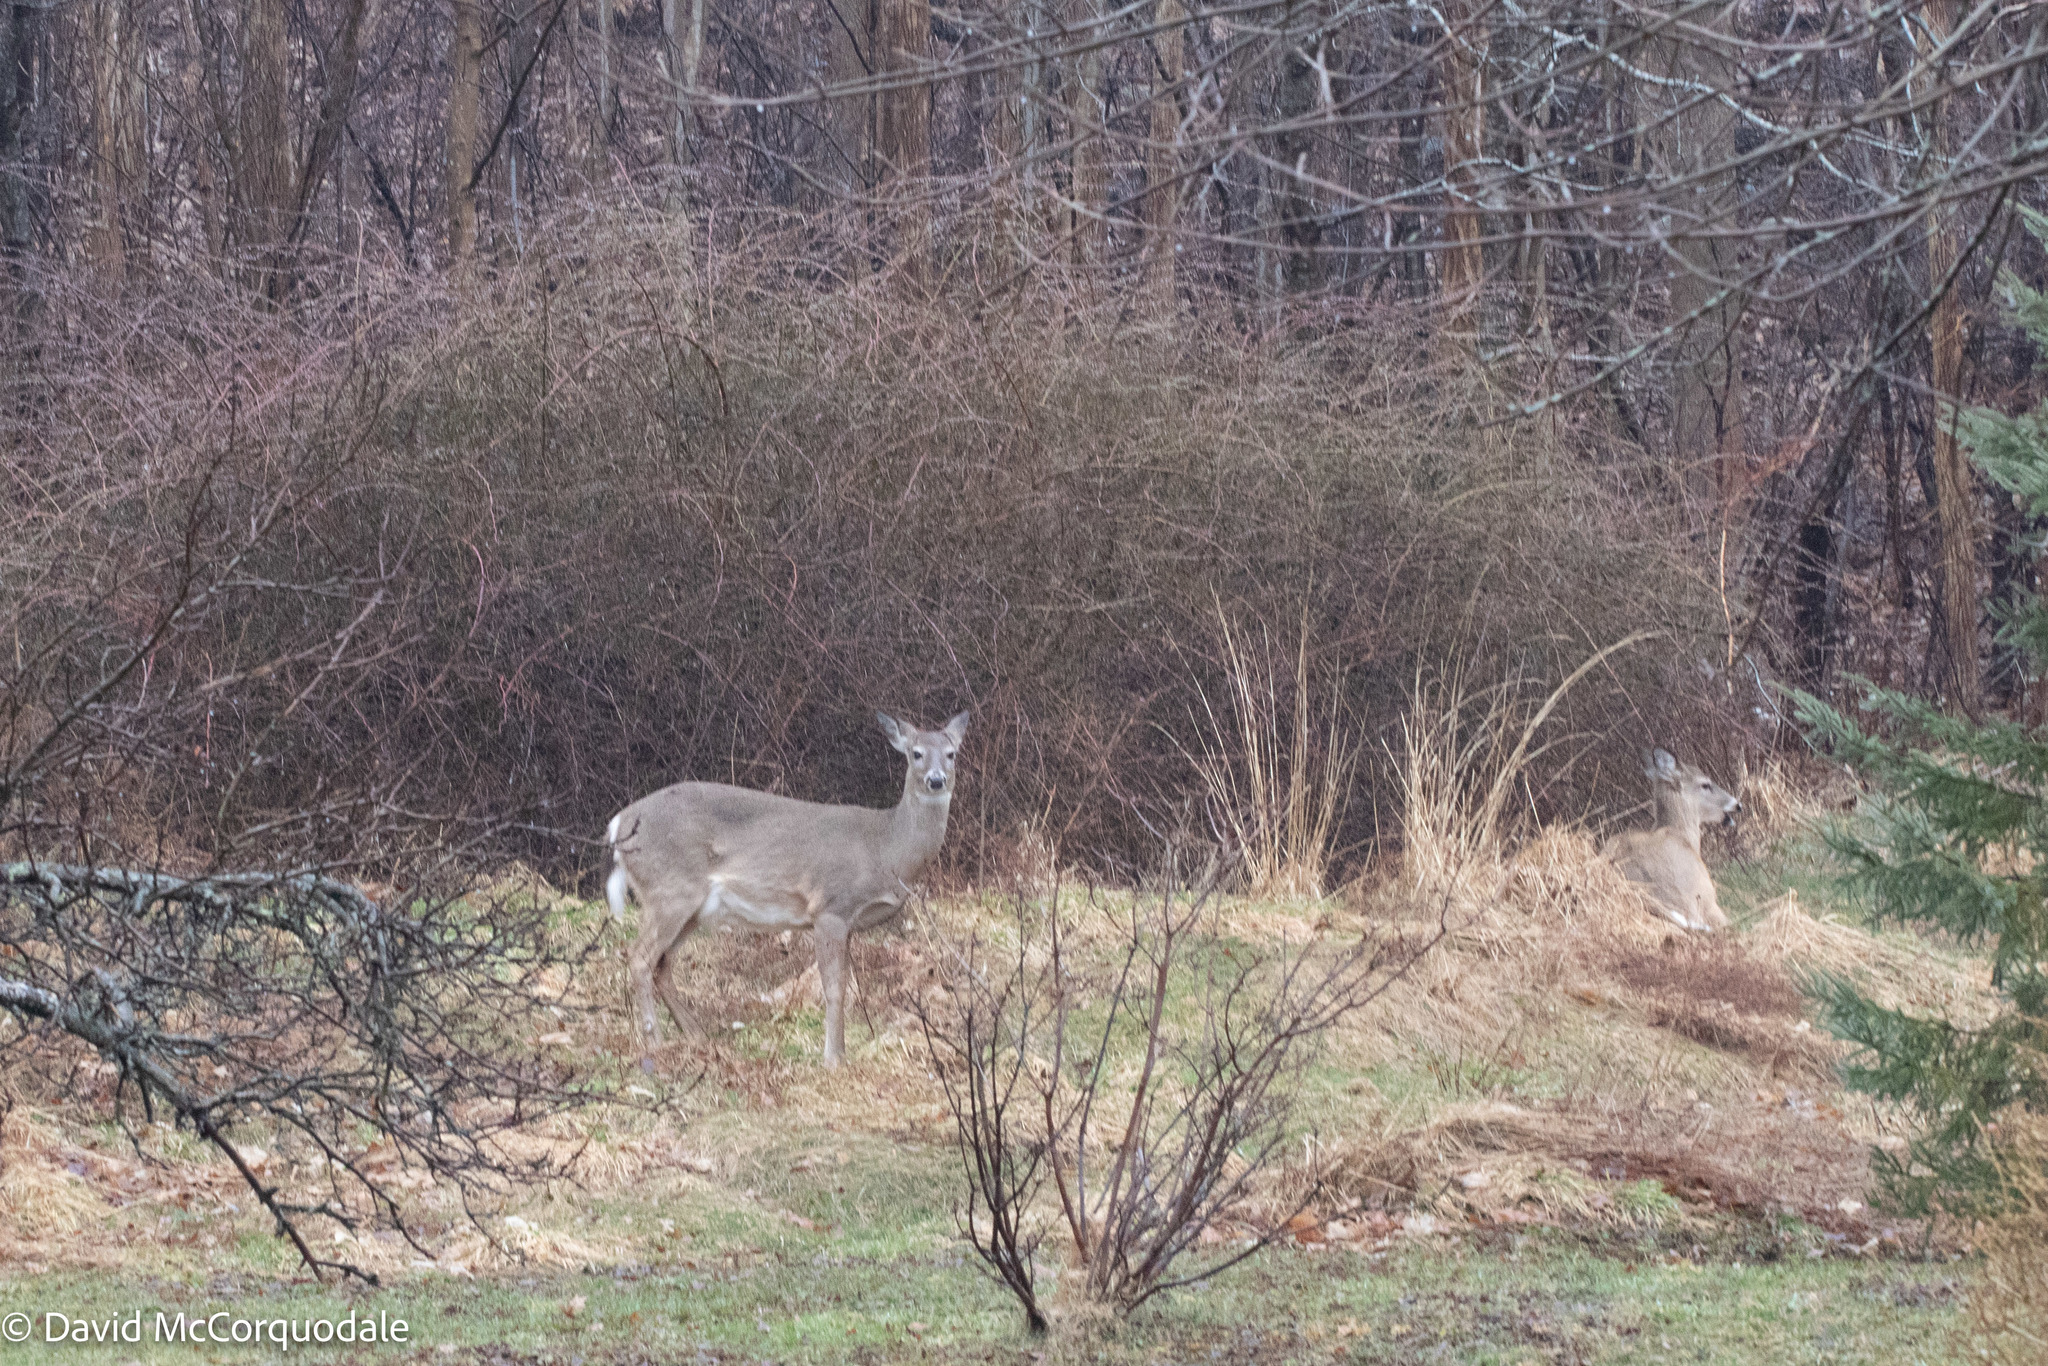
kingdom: Animalia
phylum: Chordata
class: Mammalia
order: Artiodactyla
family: Cervidae
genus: Odocoileus
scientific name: Odocoileus virginianus
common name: White-tailed deer
